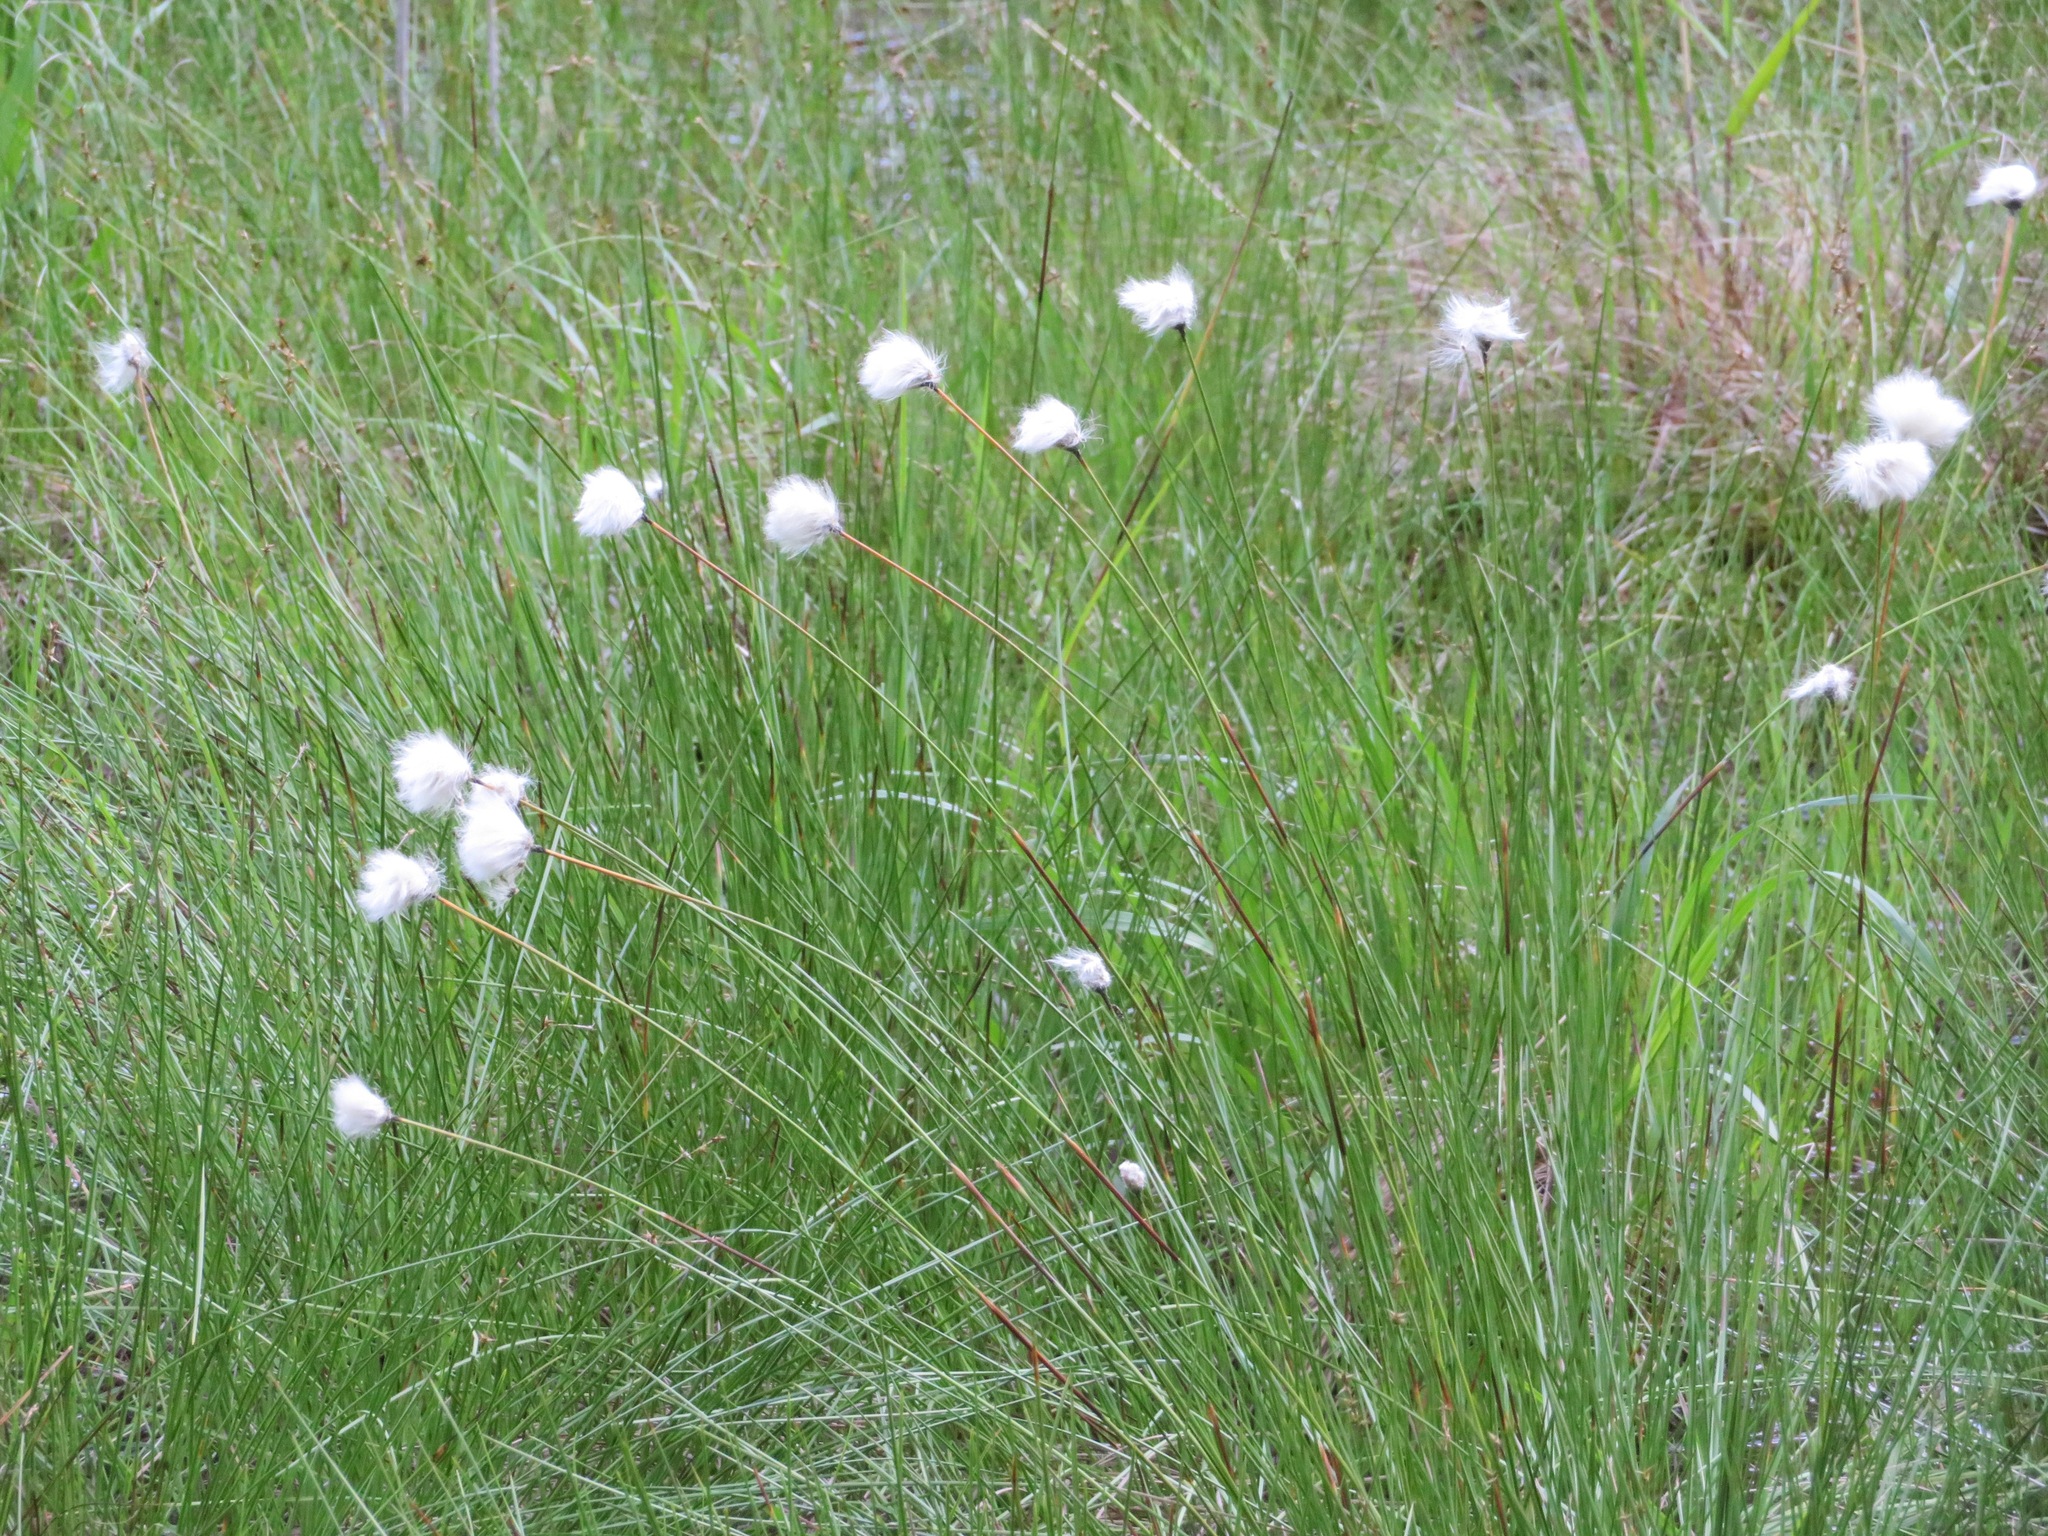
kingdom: Plantae
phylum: Tracheophyta
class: Liliopsida
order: Poales
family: Cyperaceae
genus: Eriophorum
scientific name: Eriophorum vaginatum
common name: Hare's-tail cottongrass
